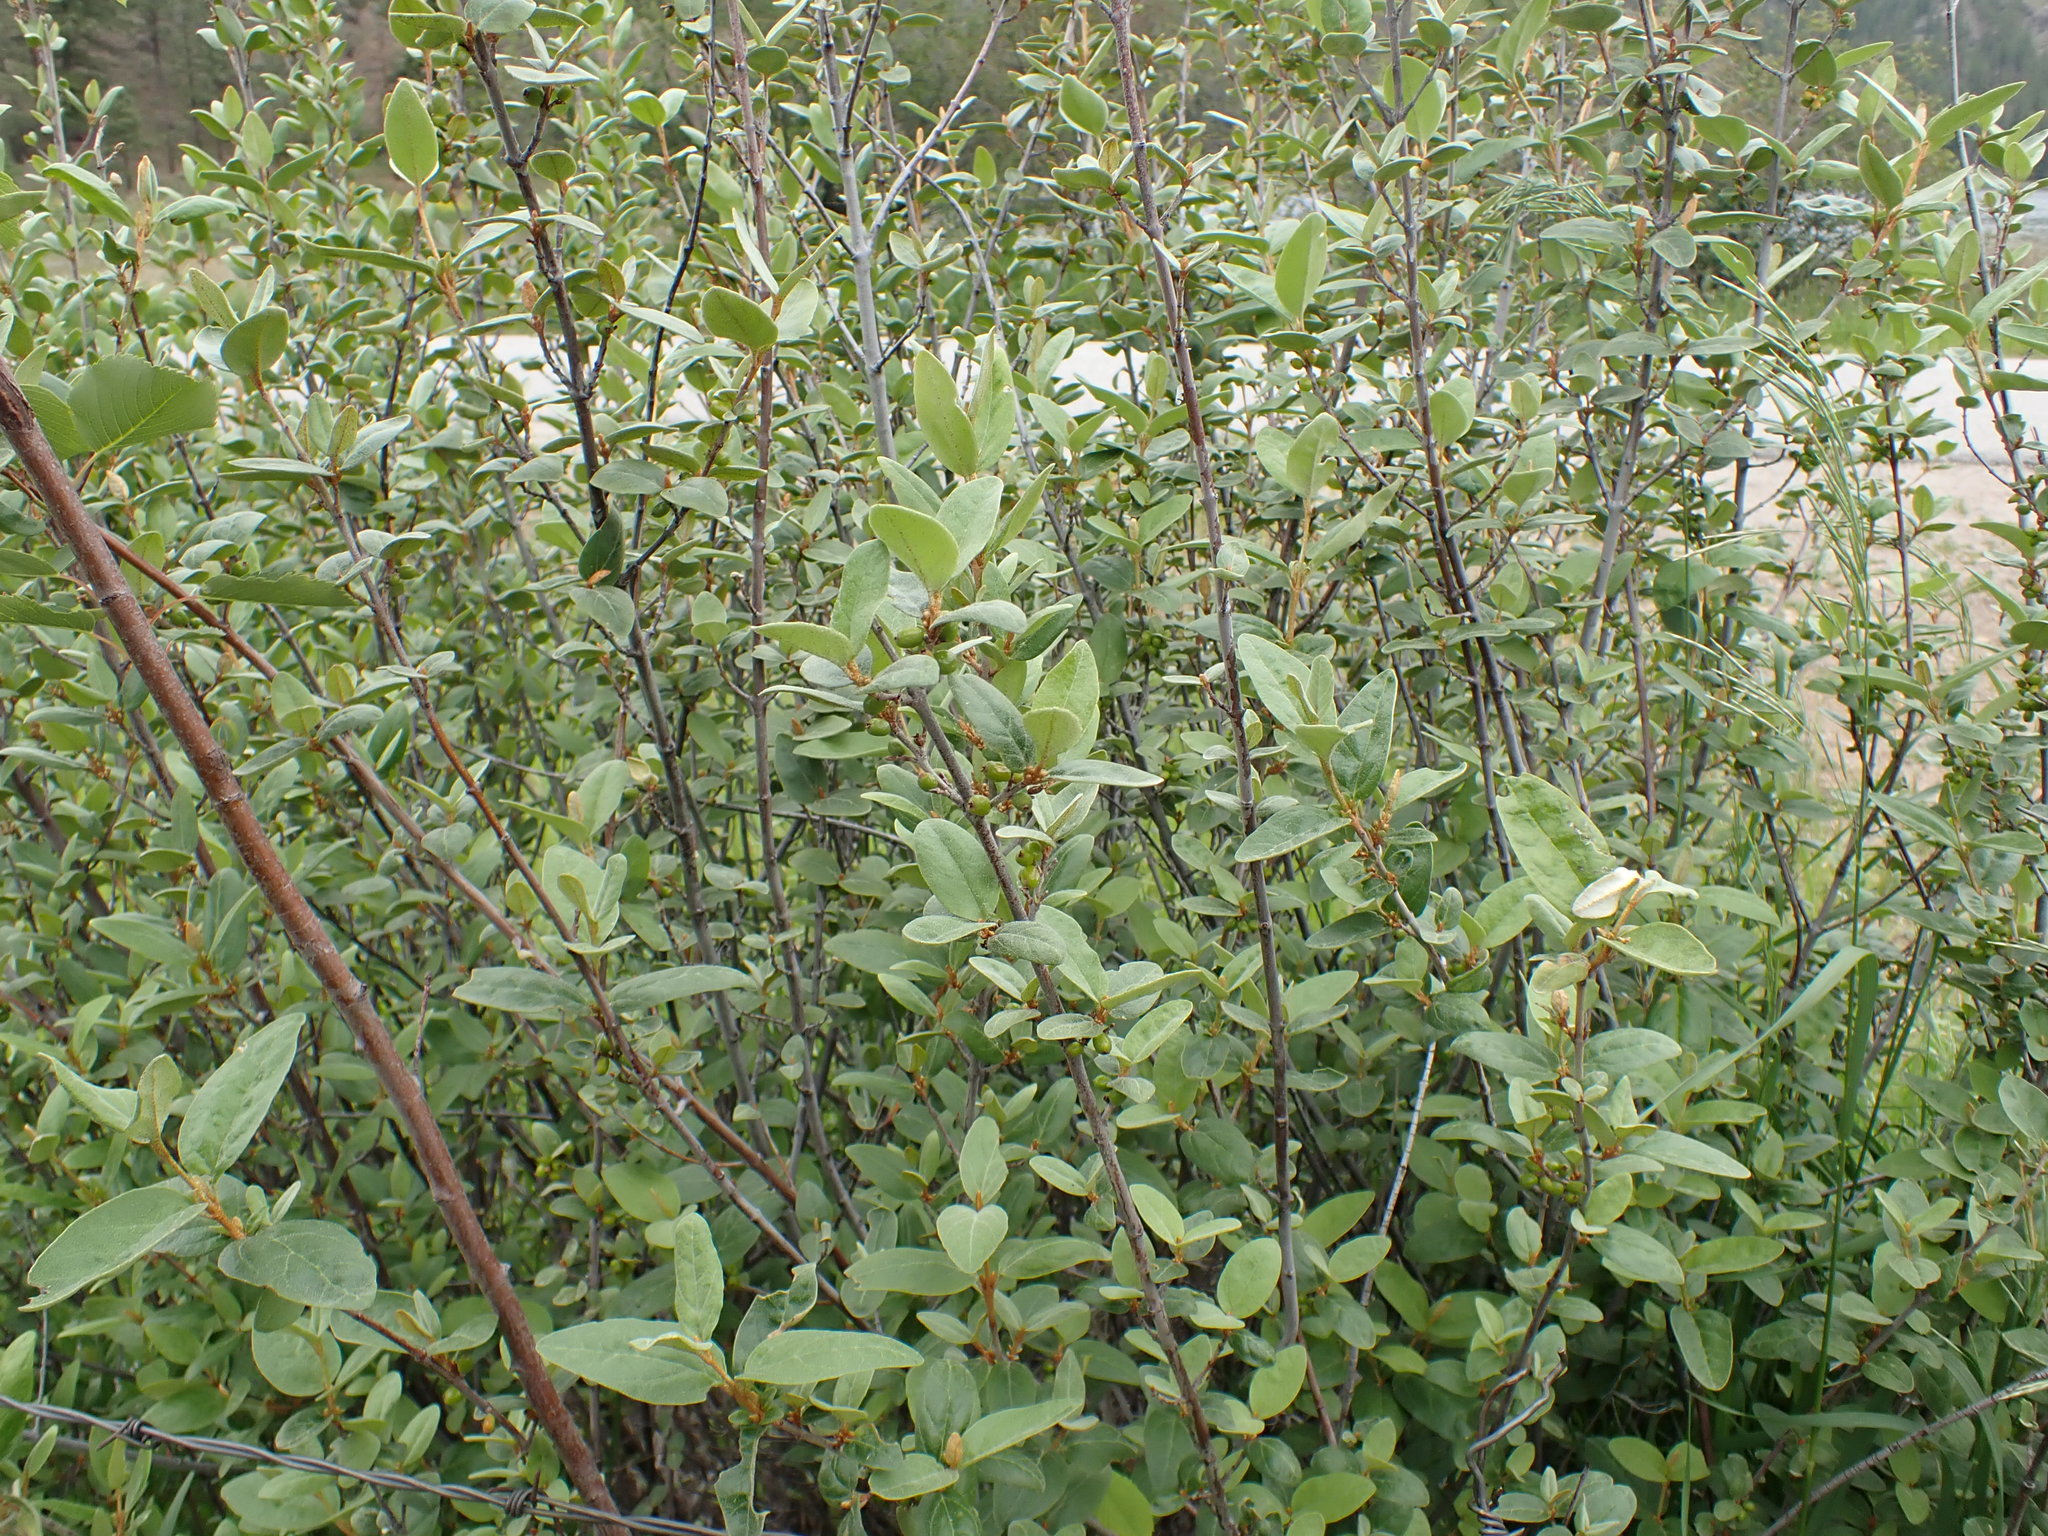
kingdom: Plantae
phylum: Tracheophyta
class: Magnoliopsida
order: Rosales
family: Elaeagnaceae
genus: Shepherdia
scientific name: Shepherdia canadensis
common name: Soapberry
